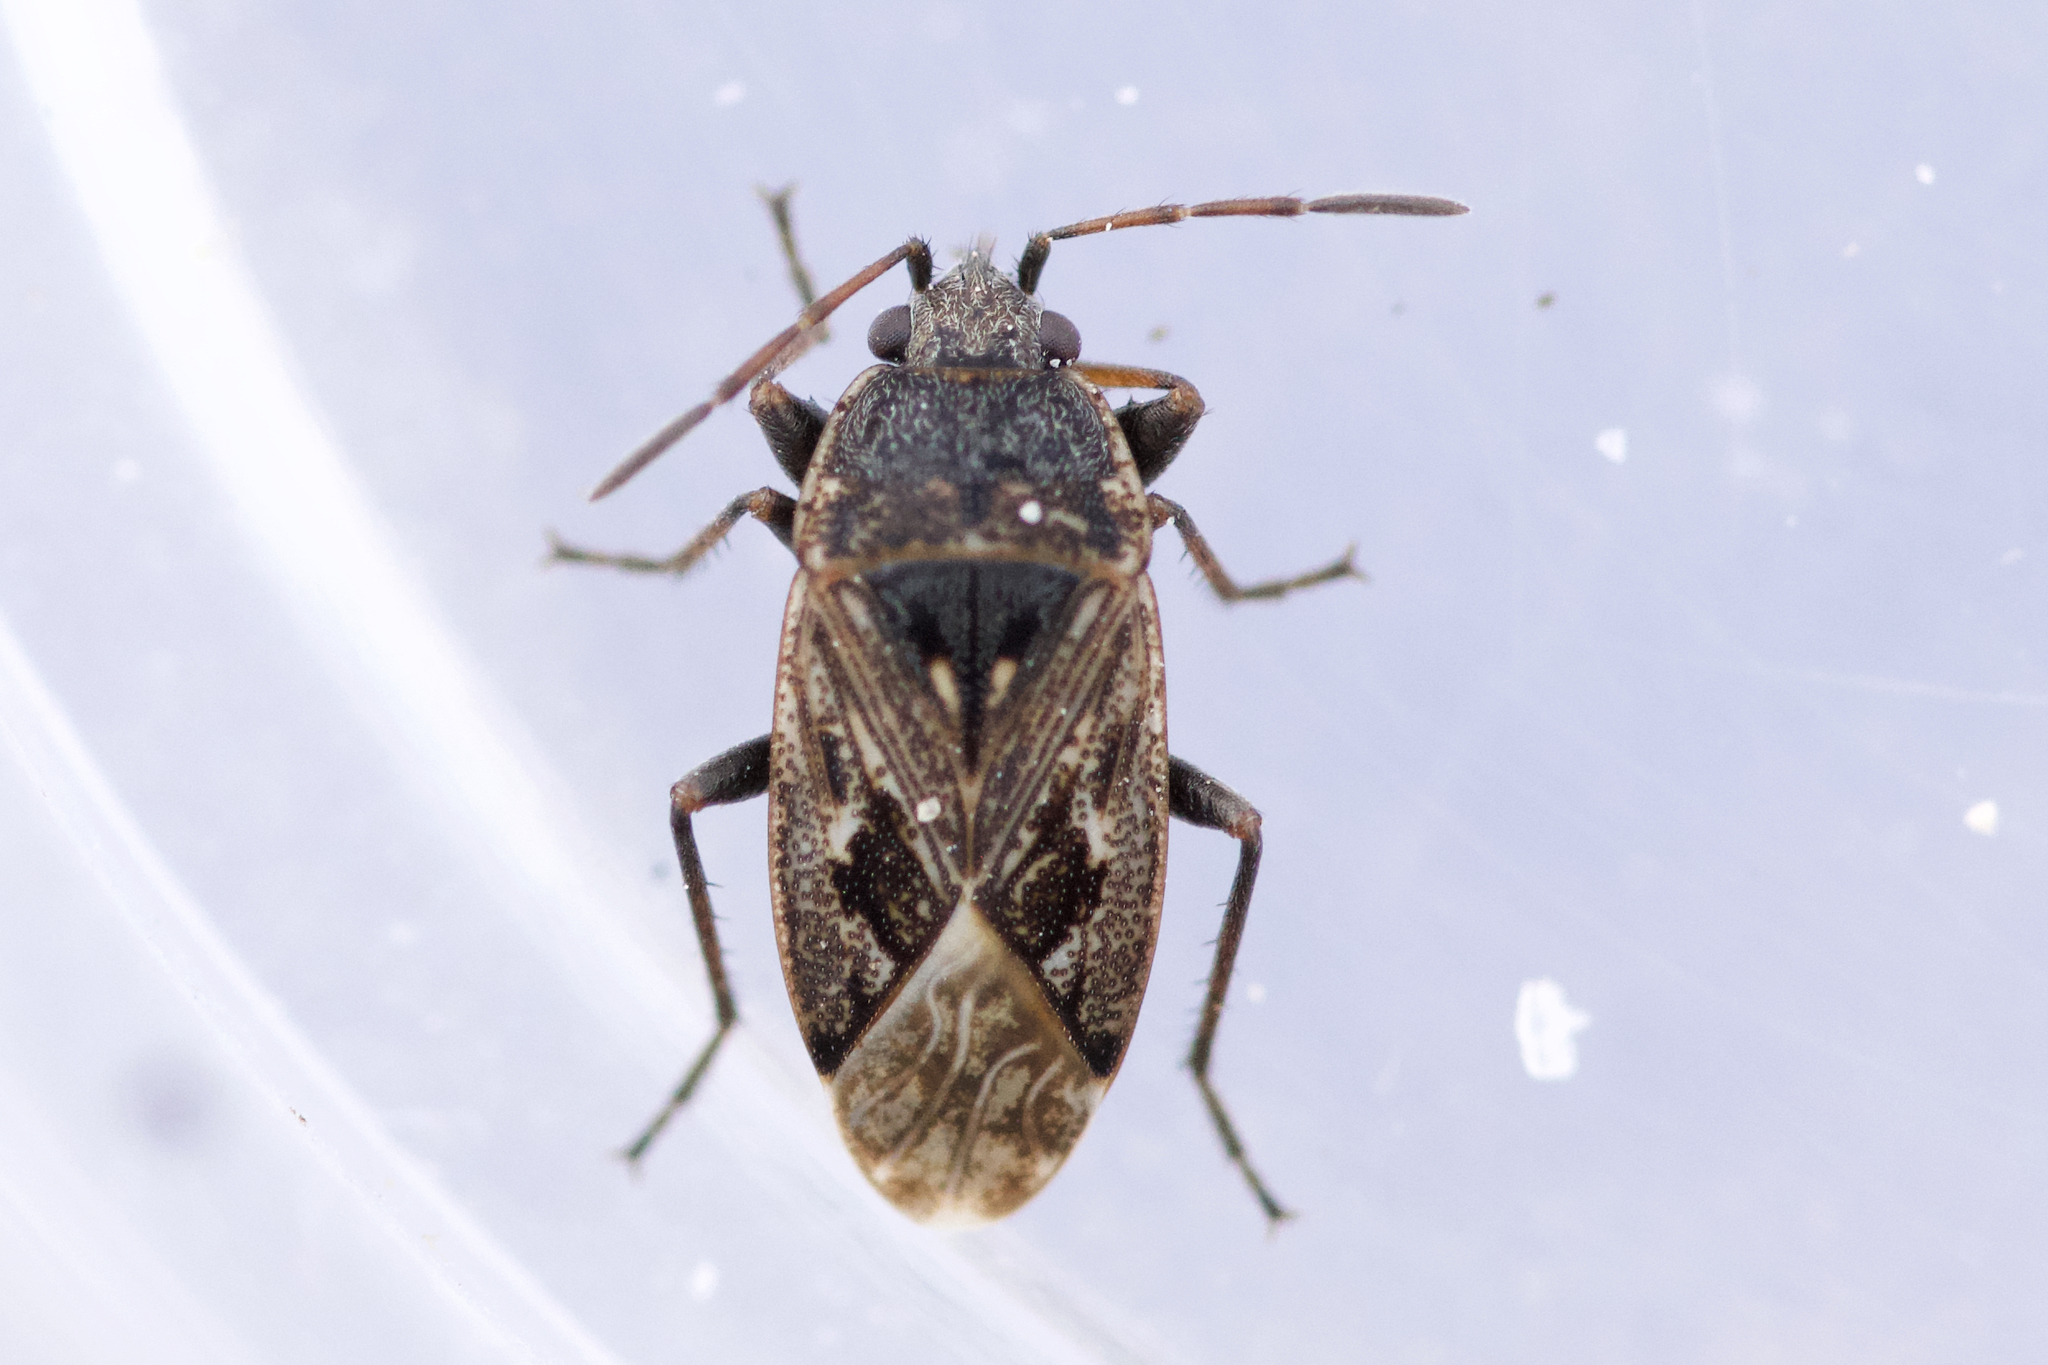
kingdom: Animalia
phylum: Arthropoda
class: Insecta
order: Hemiptera
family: Rhyparochromidae
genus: Sphragisticus
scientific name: Sphragisticus nebulosus
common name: Dirt-colored seed bug
